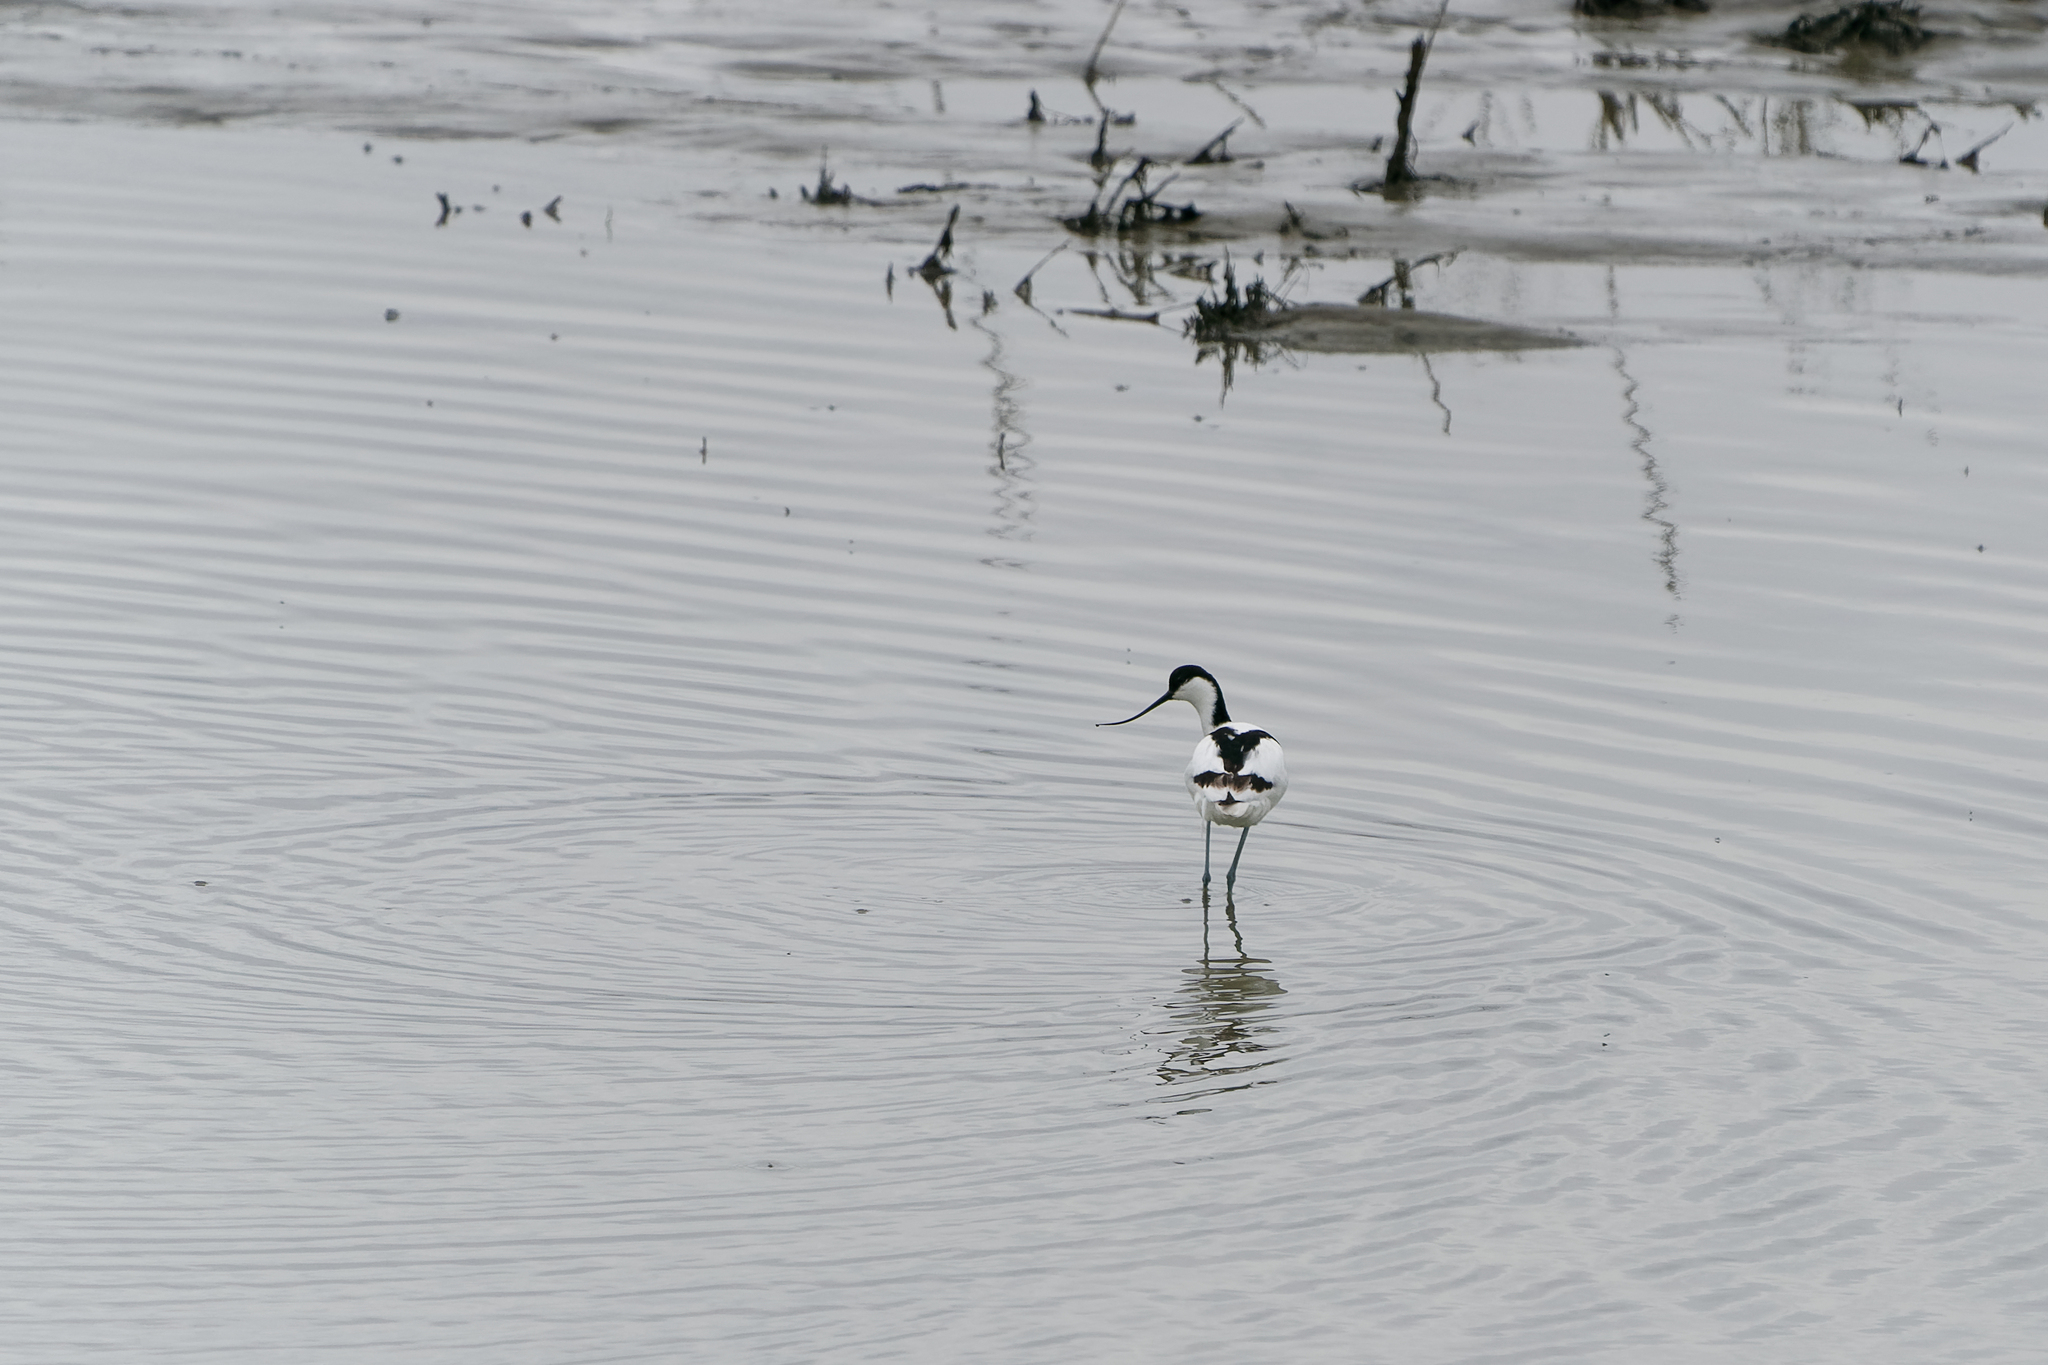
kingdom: Animalia
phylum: Chordata
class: Aves
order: Charadriiformes
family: Recurvirostridae
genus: Recurvirostra
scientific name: Recurvirostra avosetta
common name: Pied avocet
